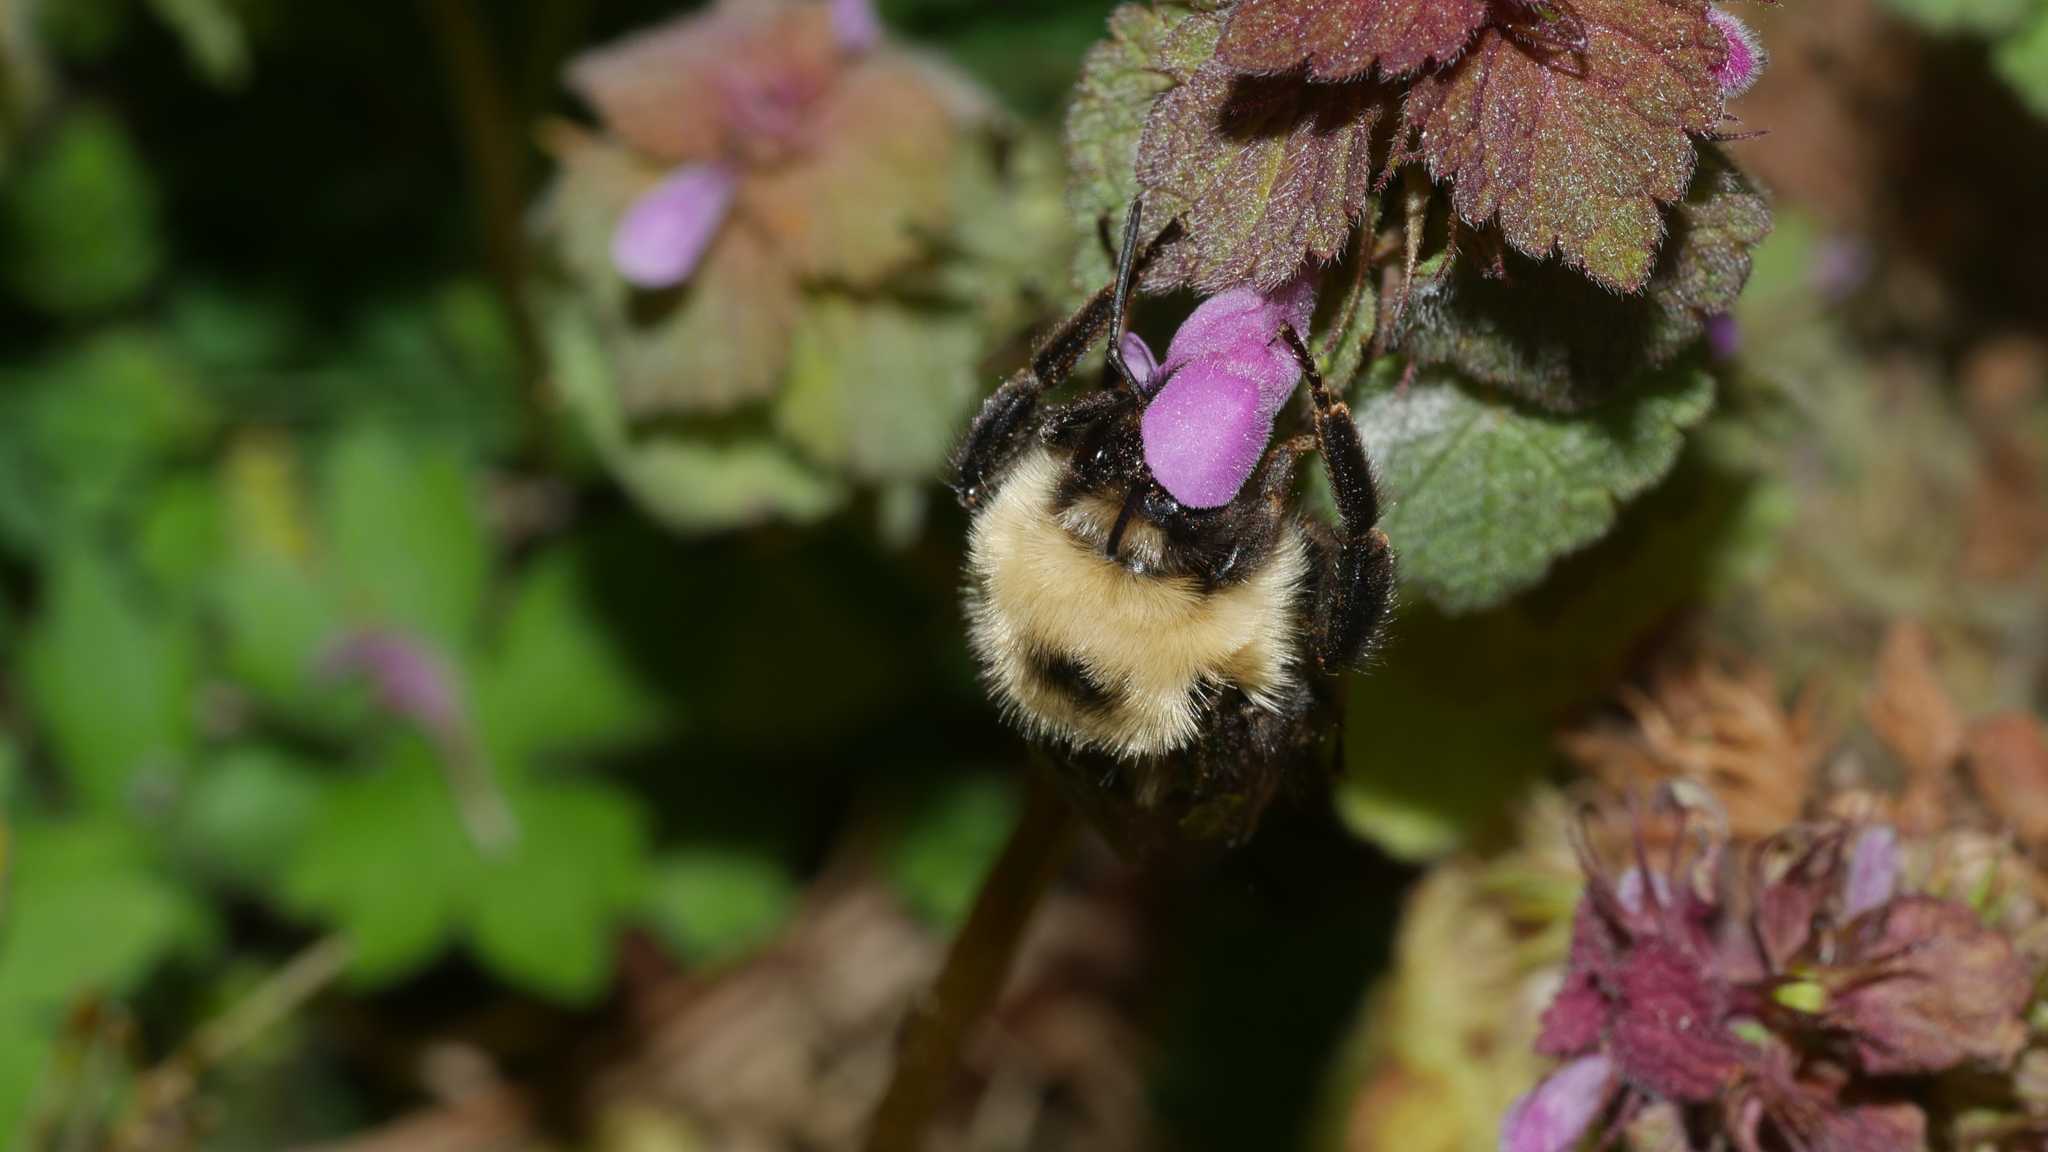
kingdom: Animalia
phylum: Arthropoda
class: Insecta
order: Hymenoptera
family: Apidae
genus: Bombus
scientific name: Bombus bimaculatus
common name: Two-spotted bumble bee
